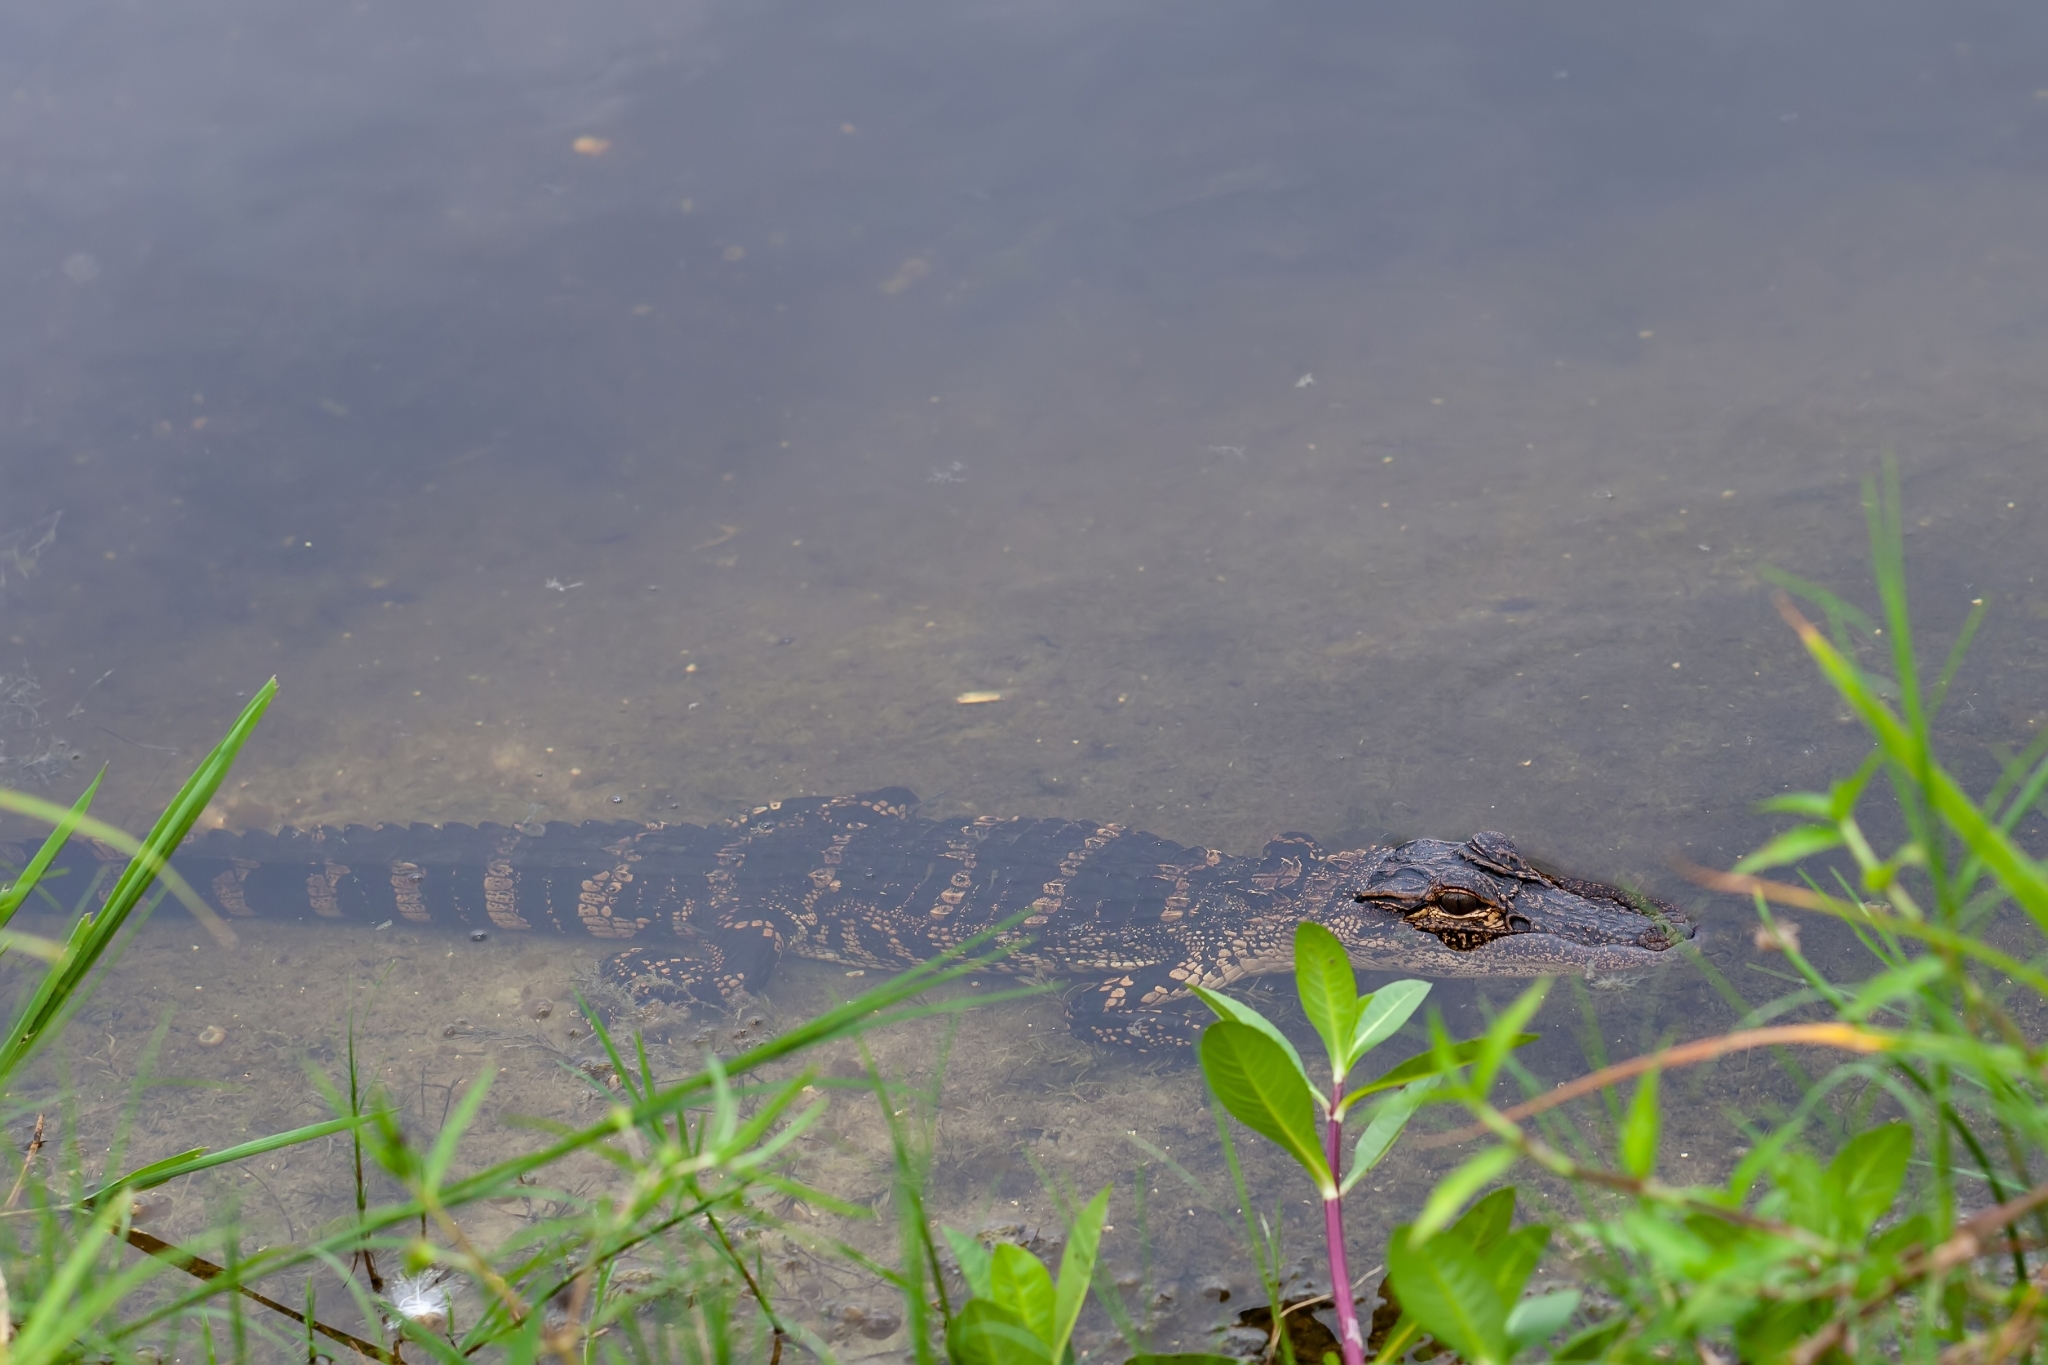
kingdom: Animalia
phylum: Chordata
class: Crocodylia
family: Alligatoridae
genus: Alligator
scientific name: Alligator mississippiensis
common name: American alligator
